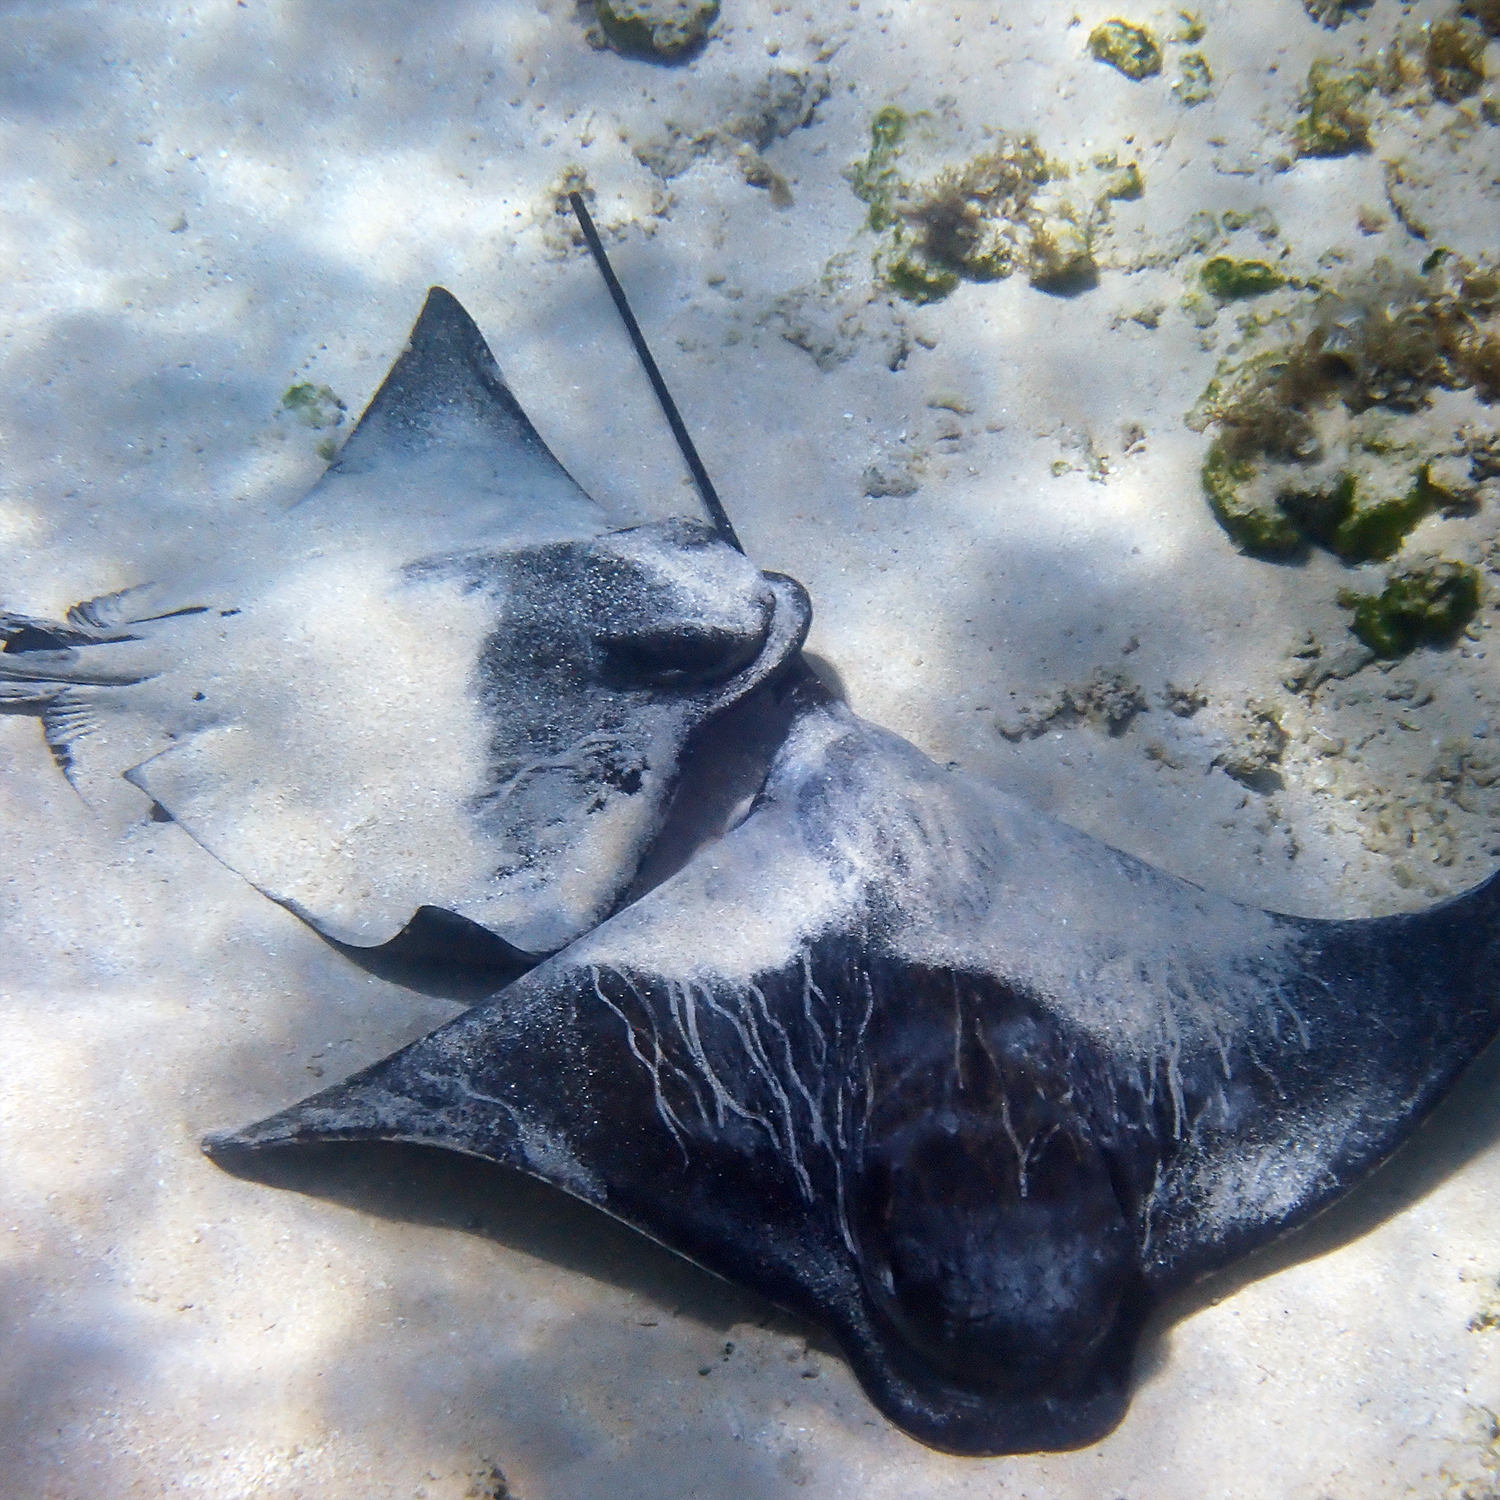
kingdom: Animalia
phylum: Chordata
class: Elasmobranchii
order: Myliobatiformes
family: Myliobatidae
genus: Myliobatis
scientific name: Myliobatis tenuicaudatus
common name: Eagle ray
